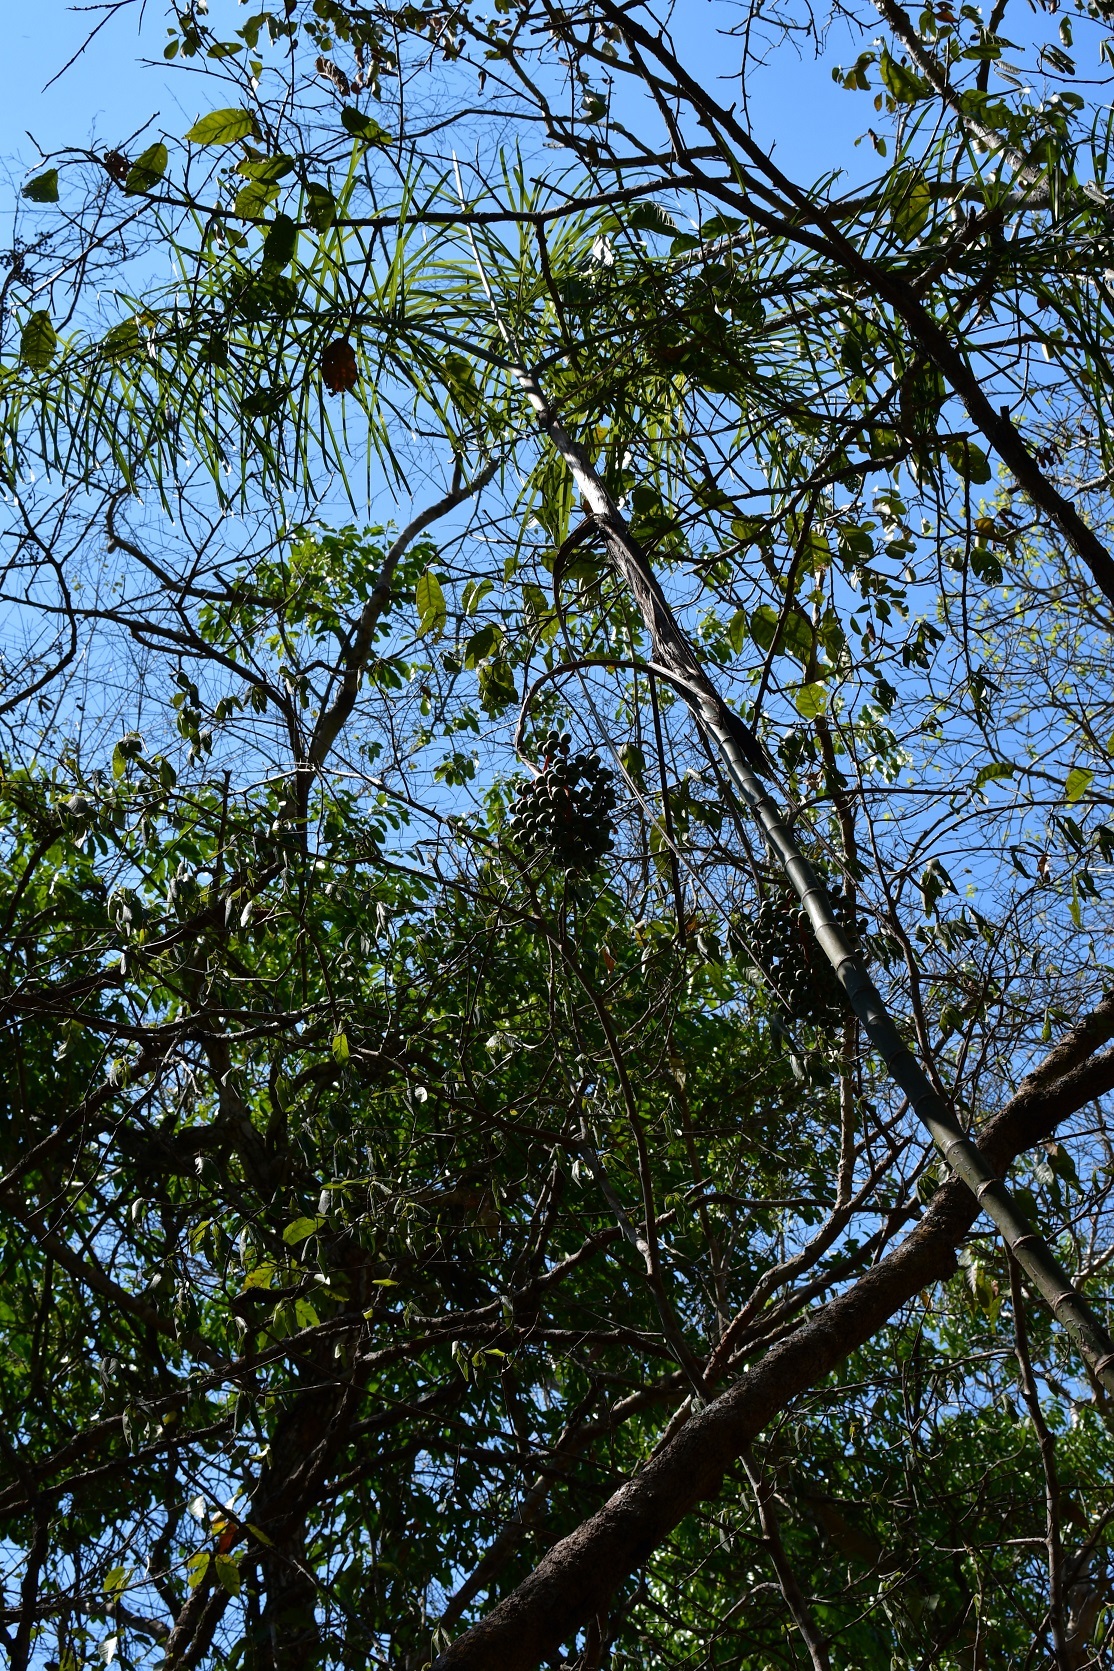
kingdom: Plantae
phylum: Tracheophyta
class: Liliopsida
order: Arecales
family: Arecaceae
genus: Chamaedorea
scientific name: Chamaedorea glaucifolia
